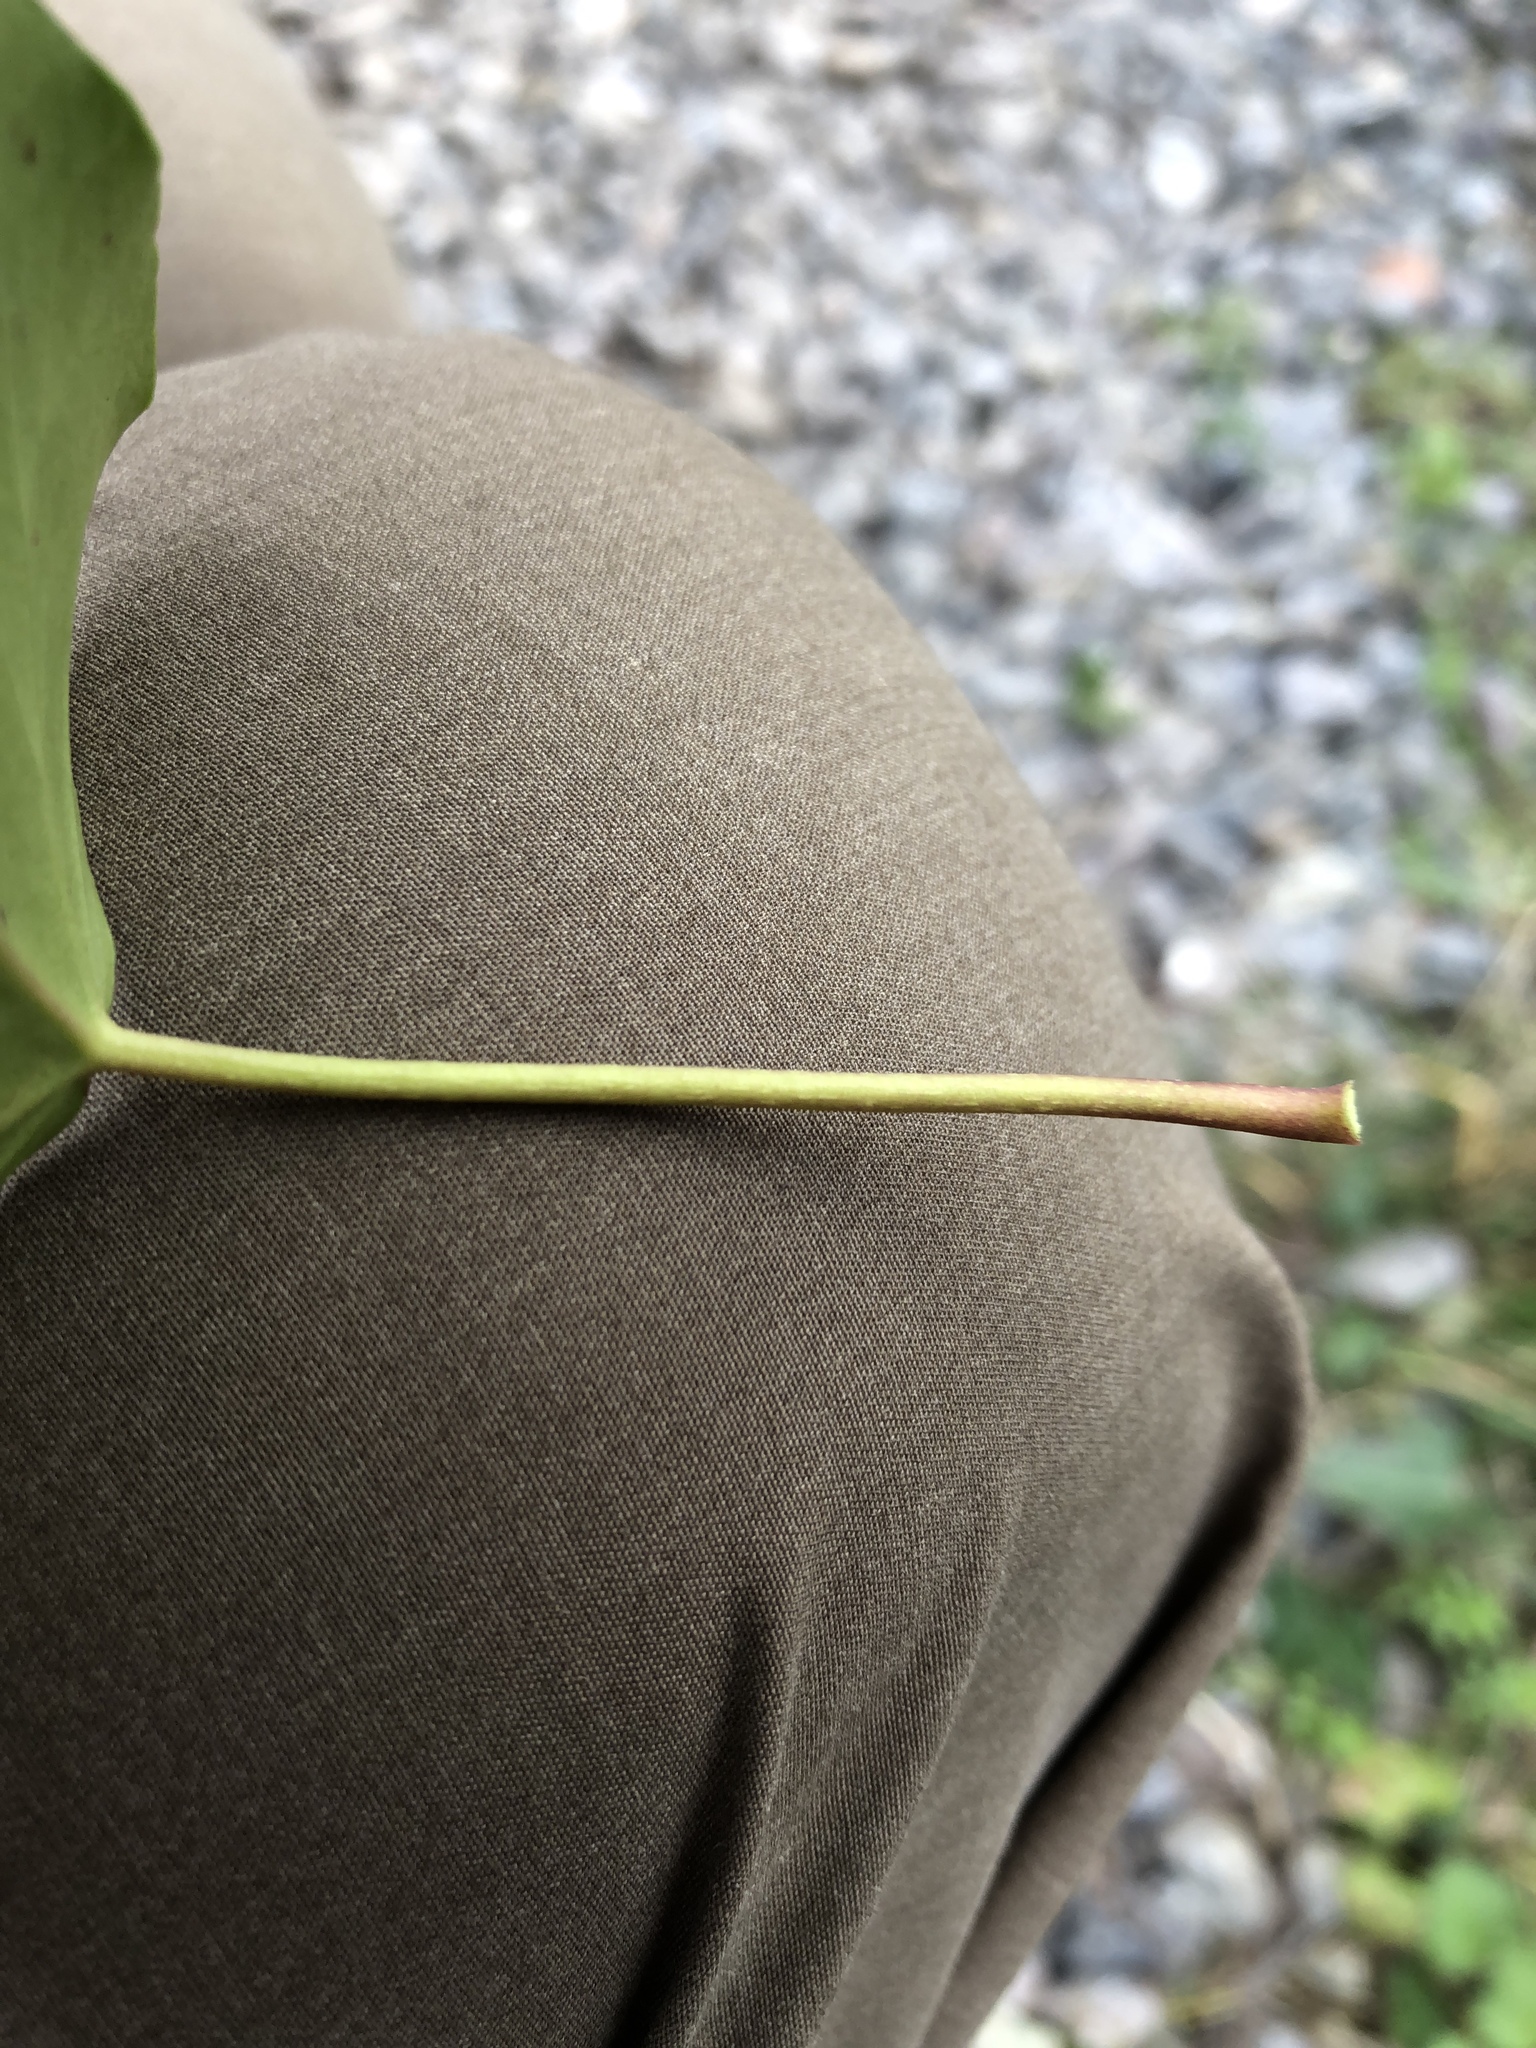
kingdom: Plantae
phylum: Tracheophyta
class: Magnoliopsida
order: Apiales
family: Araliaceae
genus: Hedera
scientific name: Hedera helix
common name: Ivy
